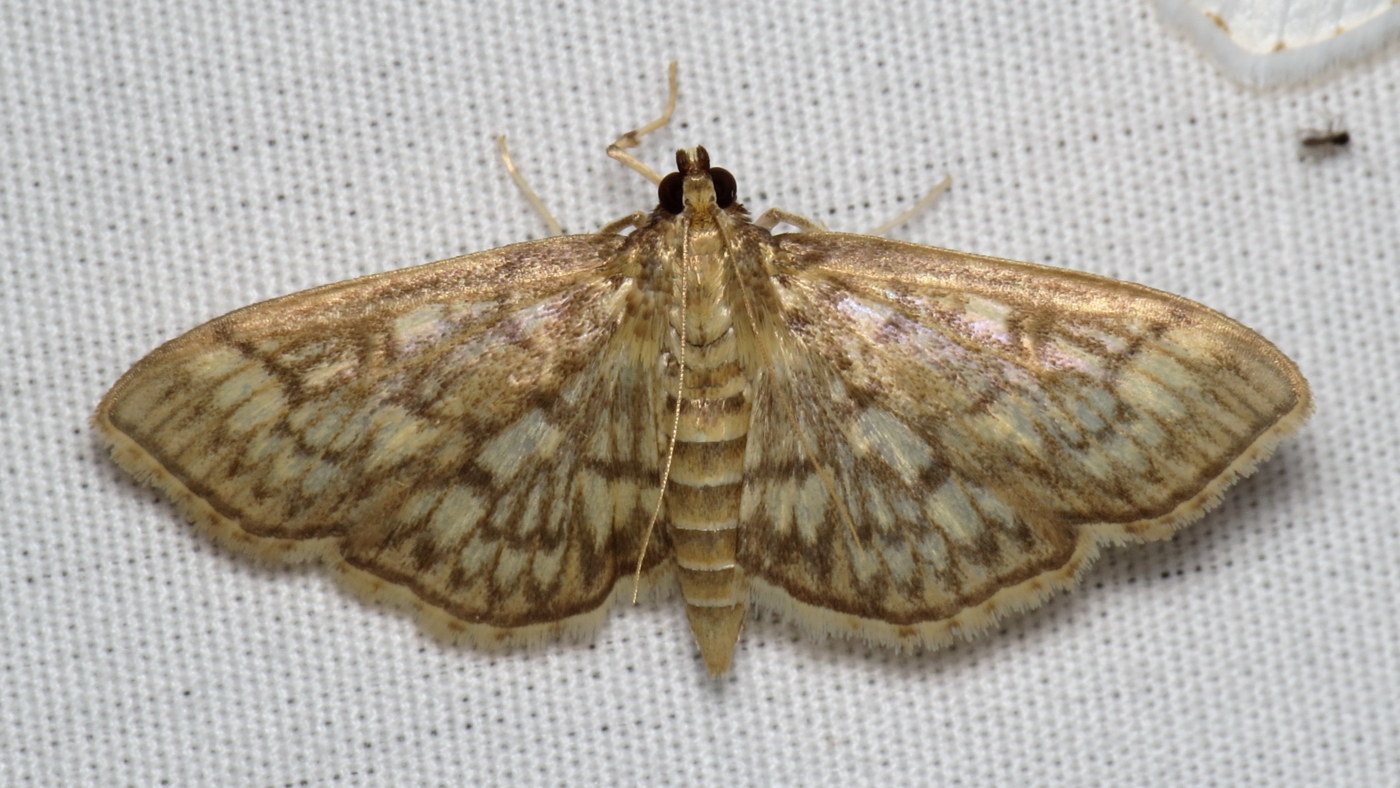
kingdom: Animalia
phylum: Arthropoda
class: Insecta
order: Lepidoptera
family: Crambidae
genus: Herpetogramma
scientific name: Herpetogramma pertextalis
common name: Bold-feathered grass moth
